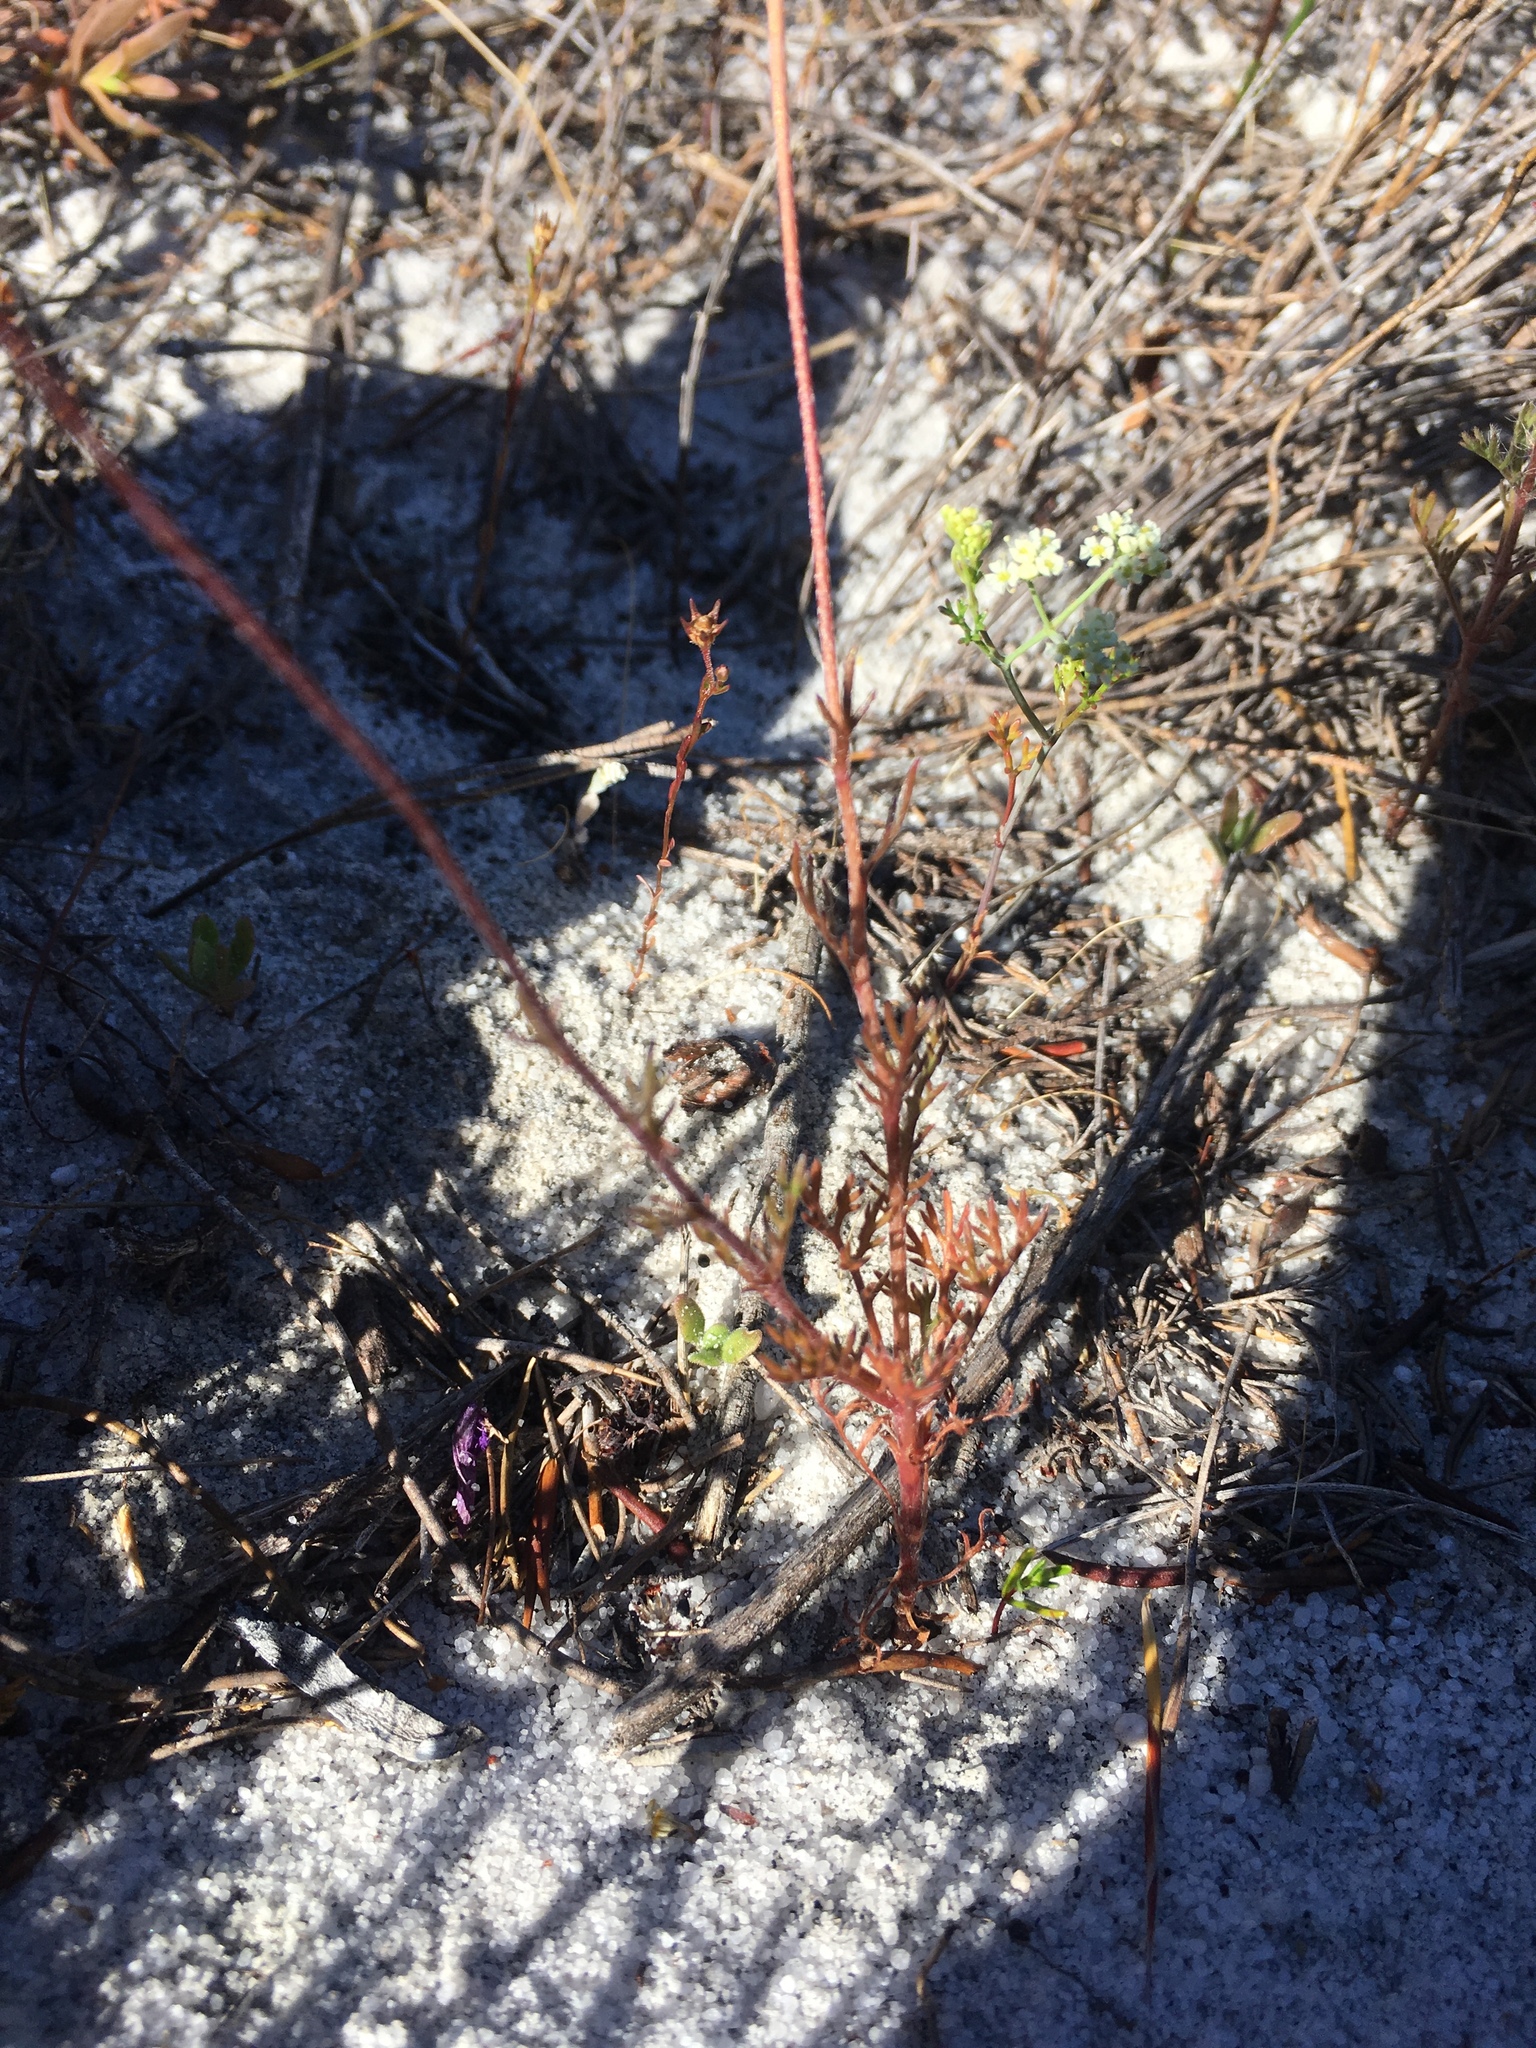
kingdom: Plantae
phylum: Tracheophyta
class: Magnoliopsida
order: Asterales
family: Asteraceae
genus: Cotula
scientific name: Cotula pruinosa
